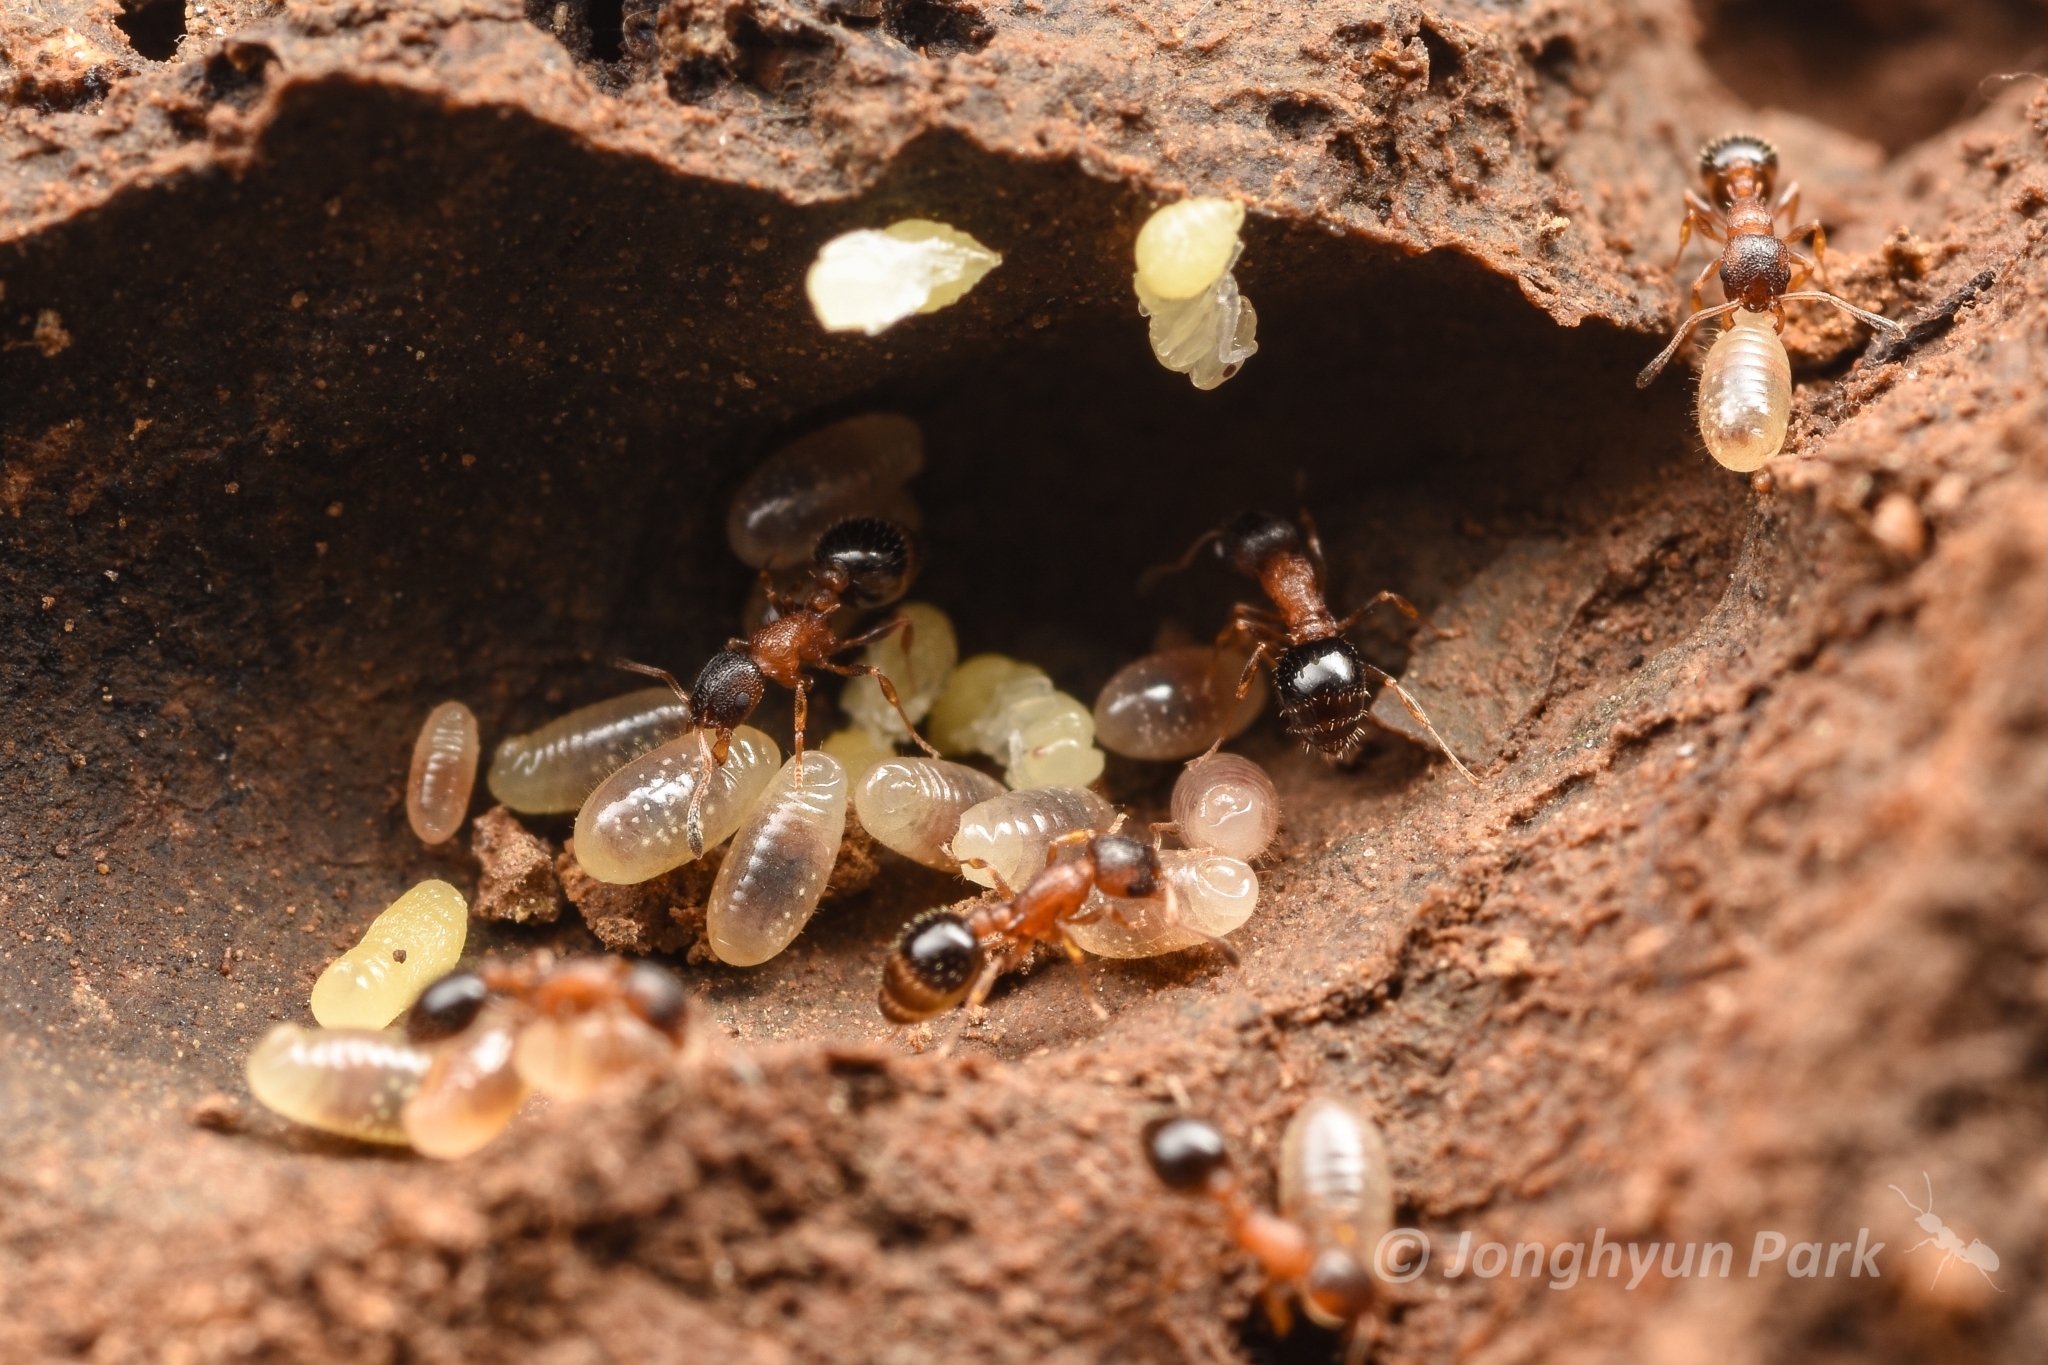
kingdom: Animalia
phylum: Arthropoda
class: Insecta
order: Hymenoptera
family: Formicidae
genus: Temnothorax
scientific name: Temnothorax
